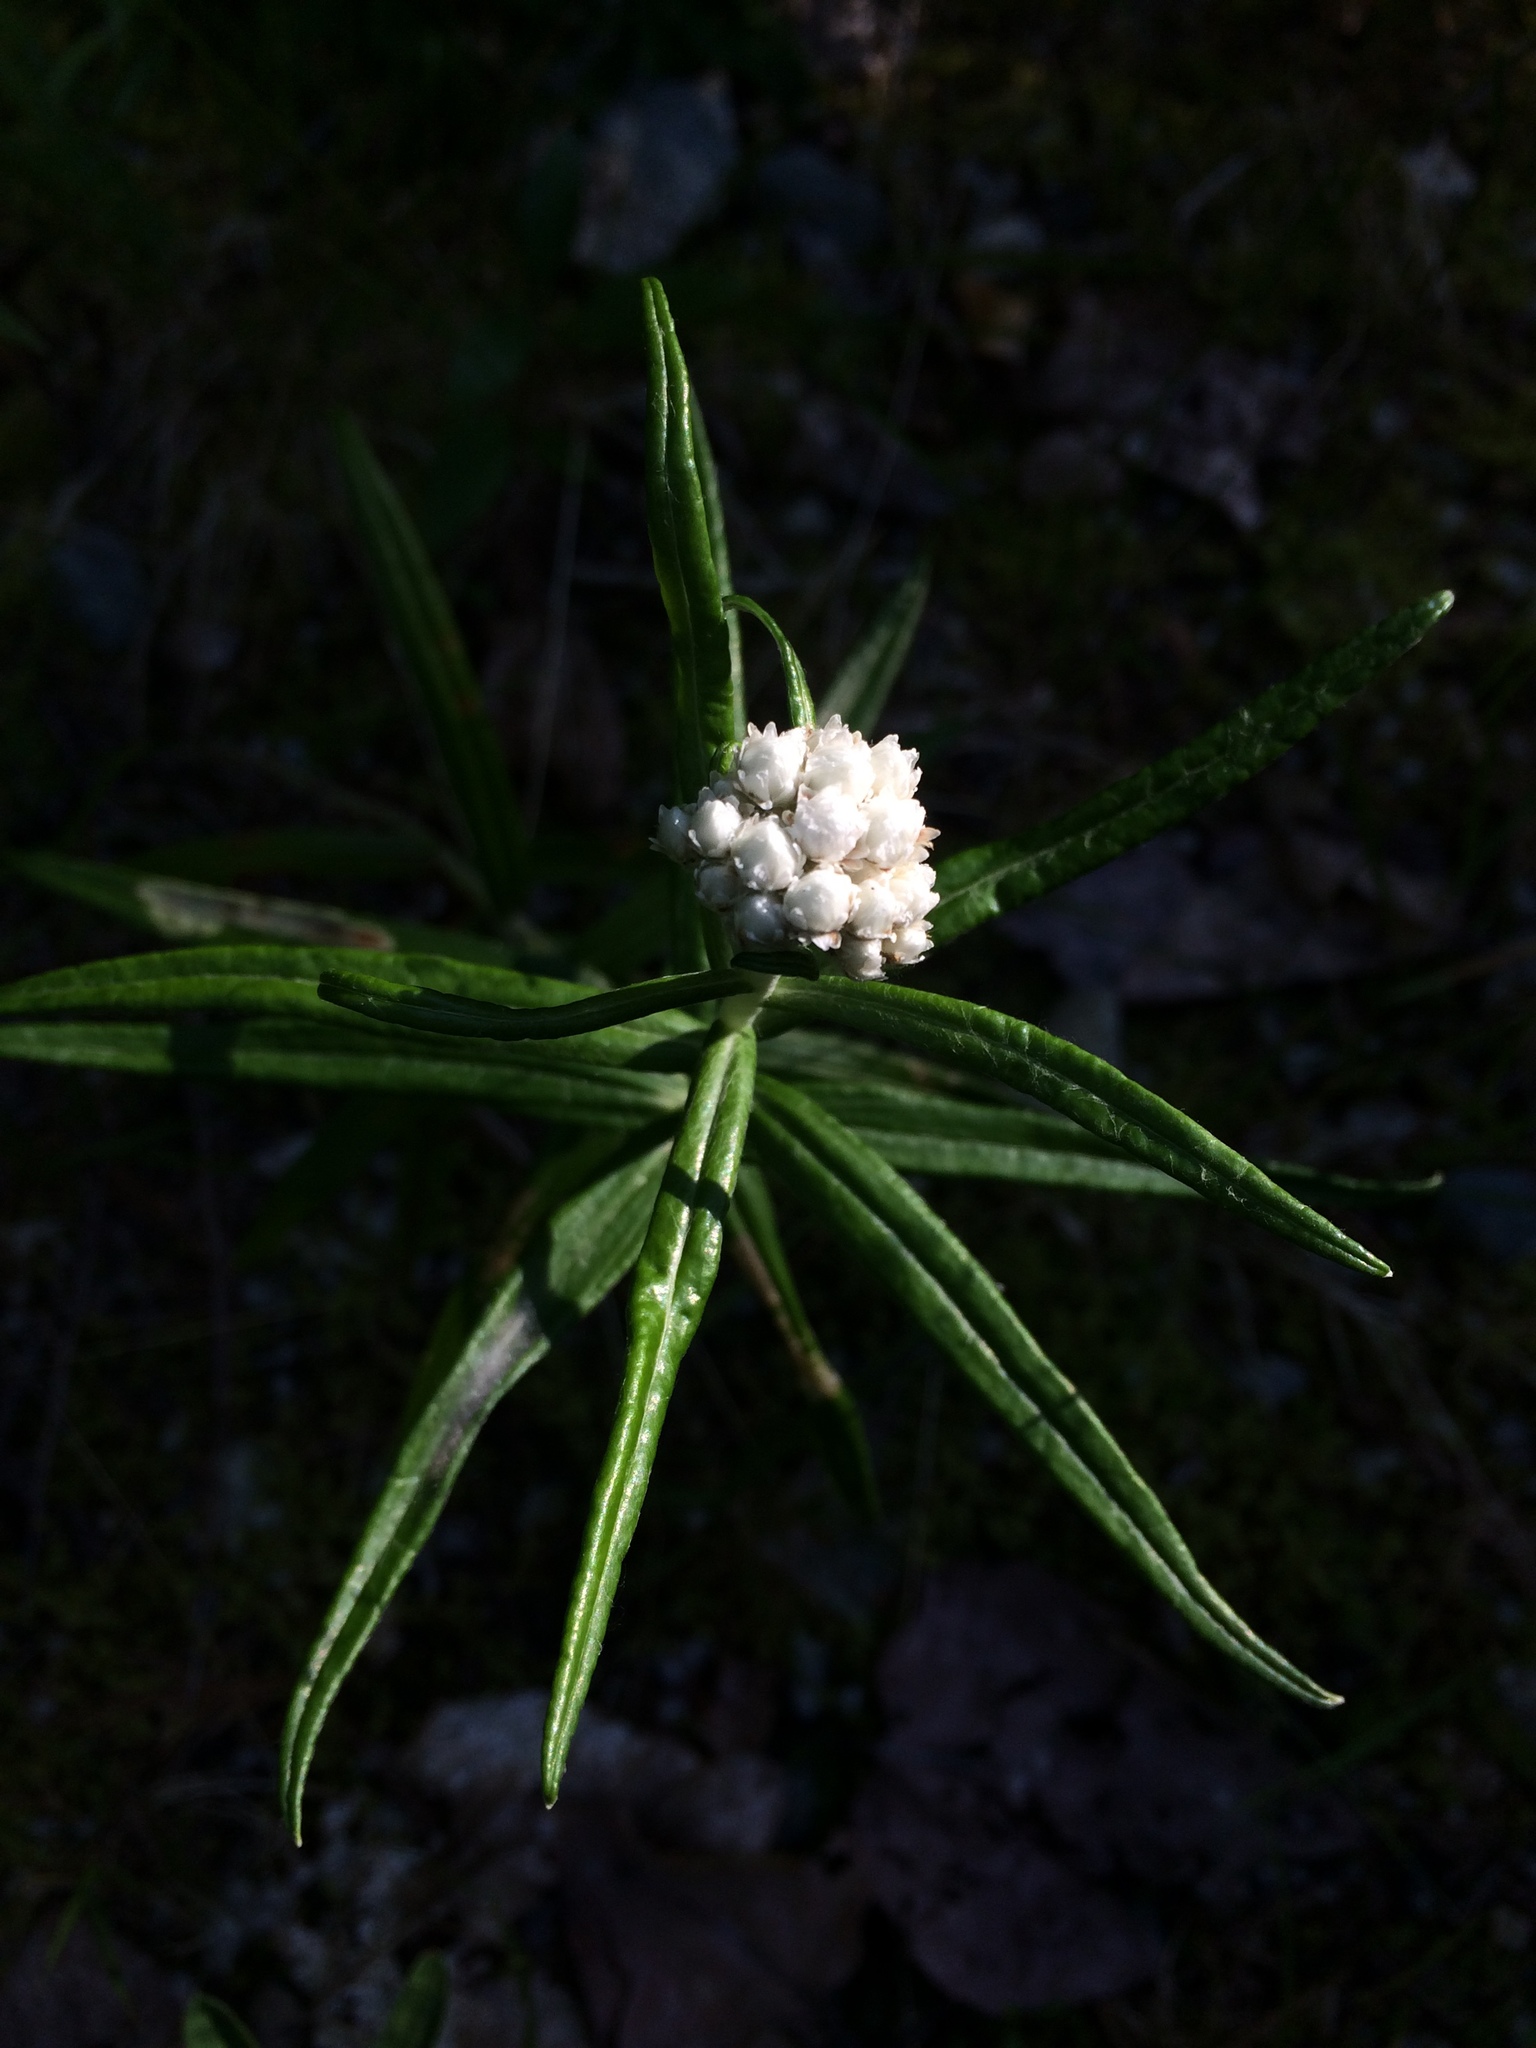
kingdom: Plantae
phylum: Tracheophyta
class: Magnoliopsida
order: Asterales
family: Asteraceae
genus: Anaphalis
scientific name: Anaphalis margaritacea
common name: Pearly everlasting
